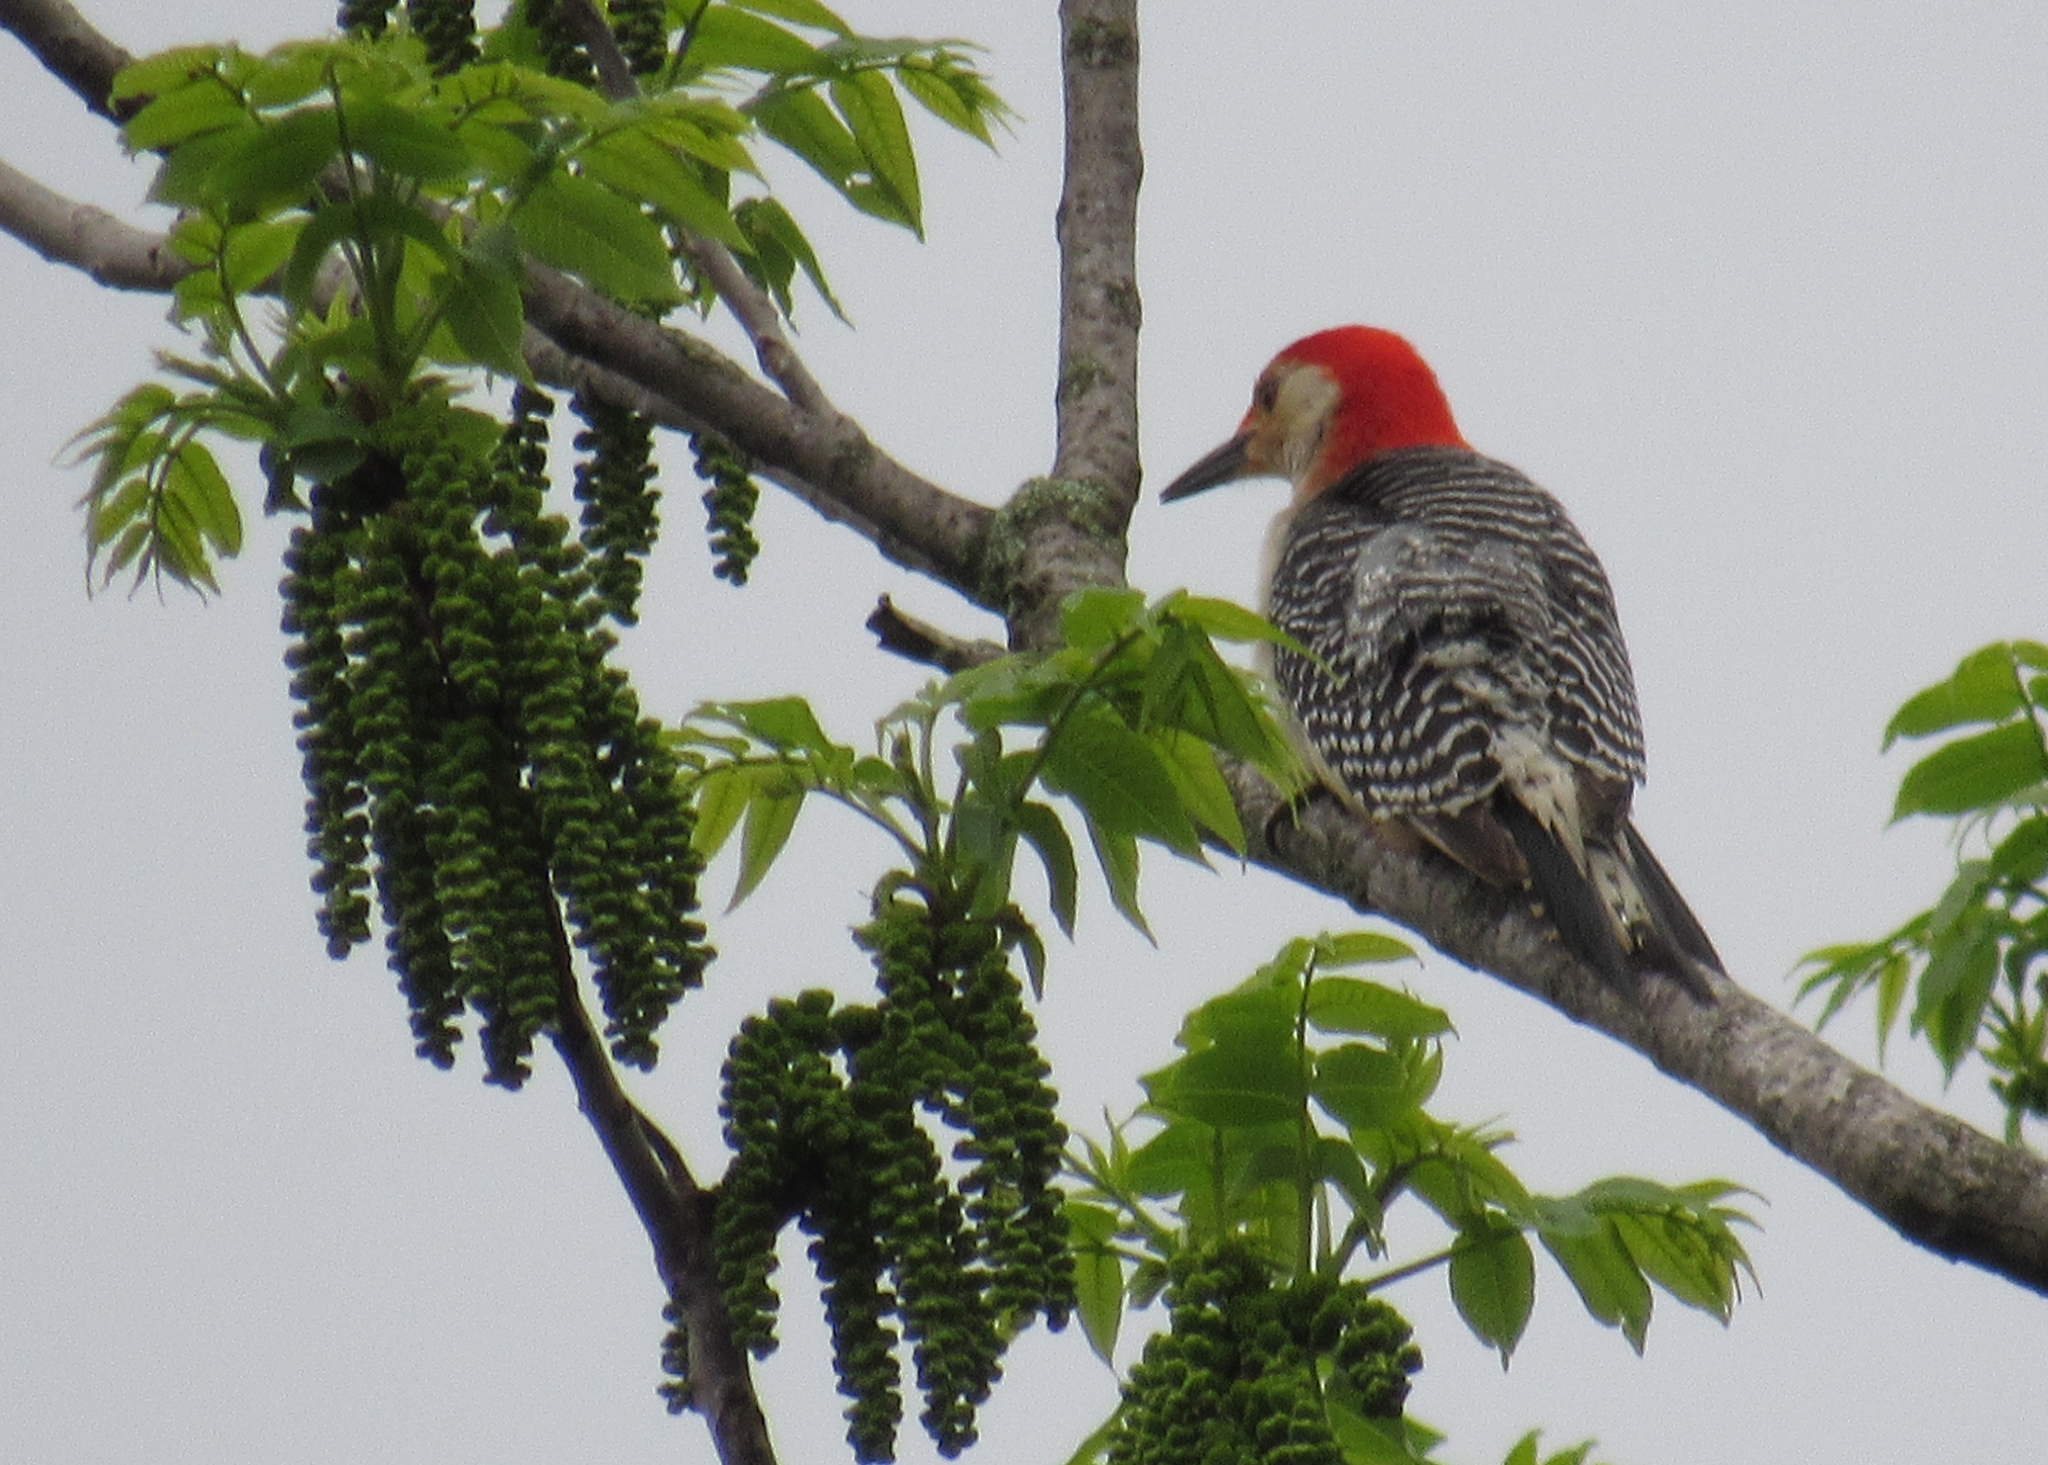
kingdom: Animalia
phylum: Chordata
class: Aves
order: Piciformes
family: Picidae
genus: Melanerpes
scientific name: Melanerpes carolinus
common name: Red-bellied woodpecker
